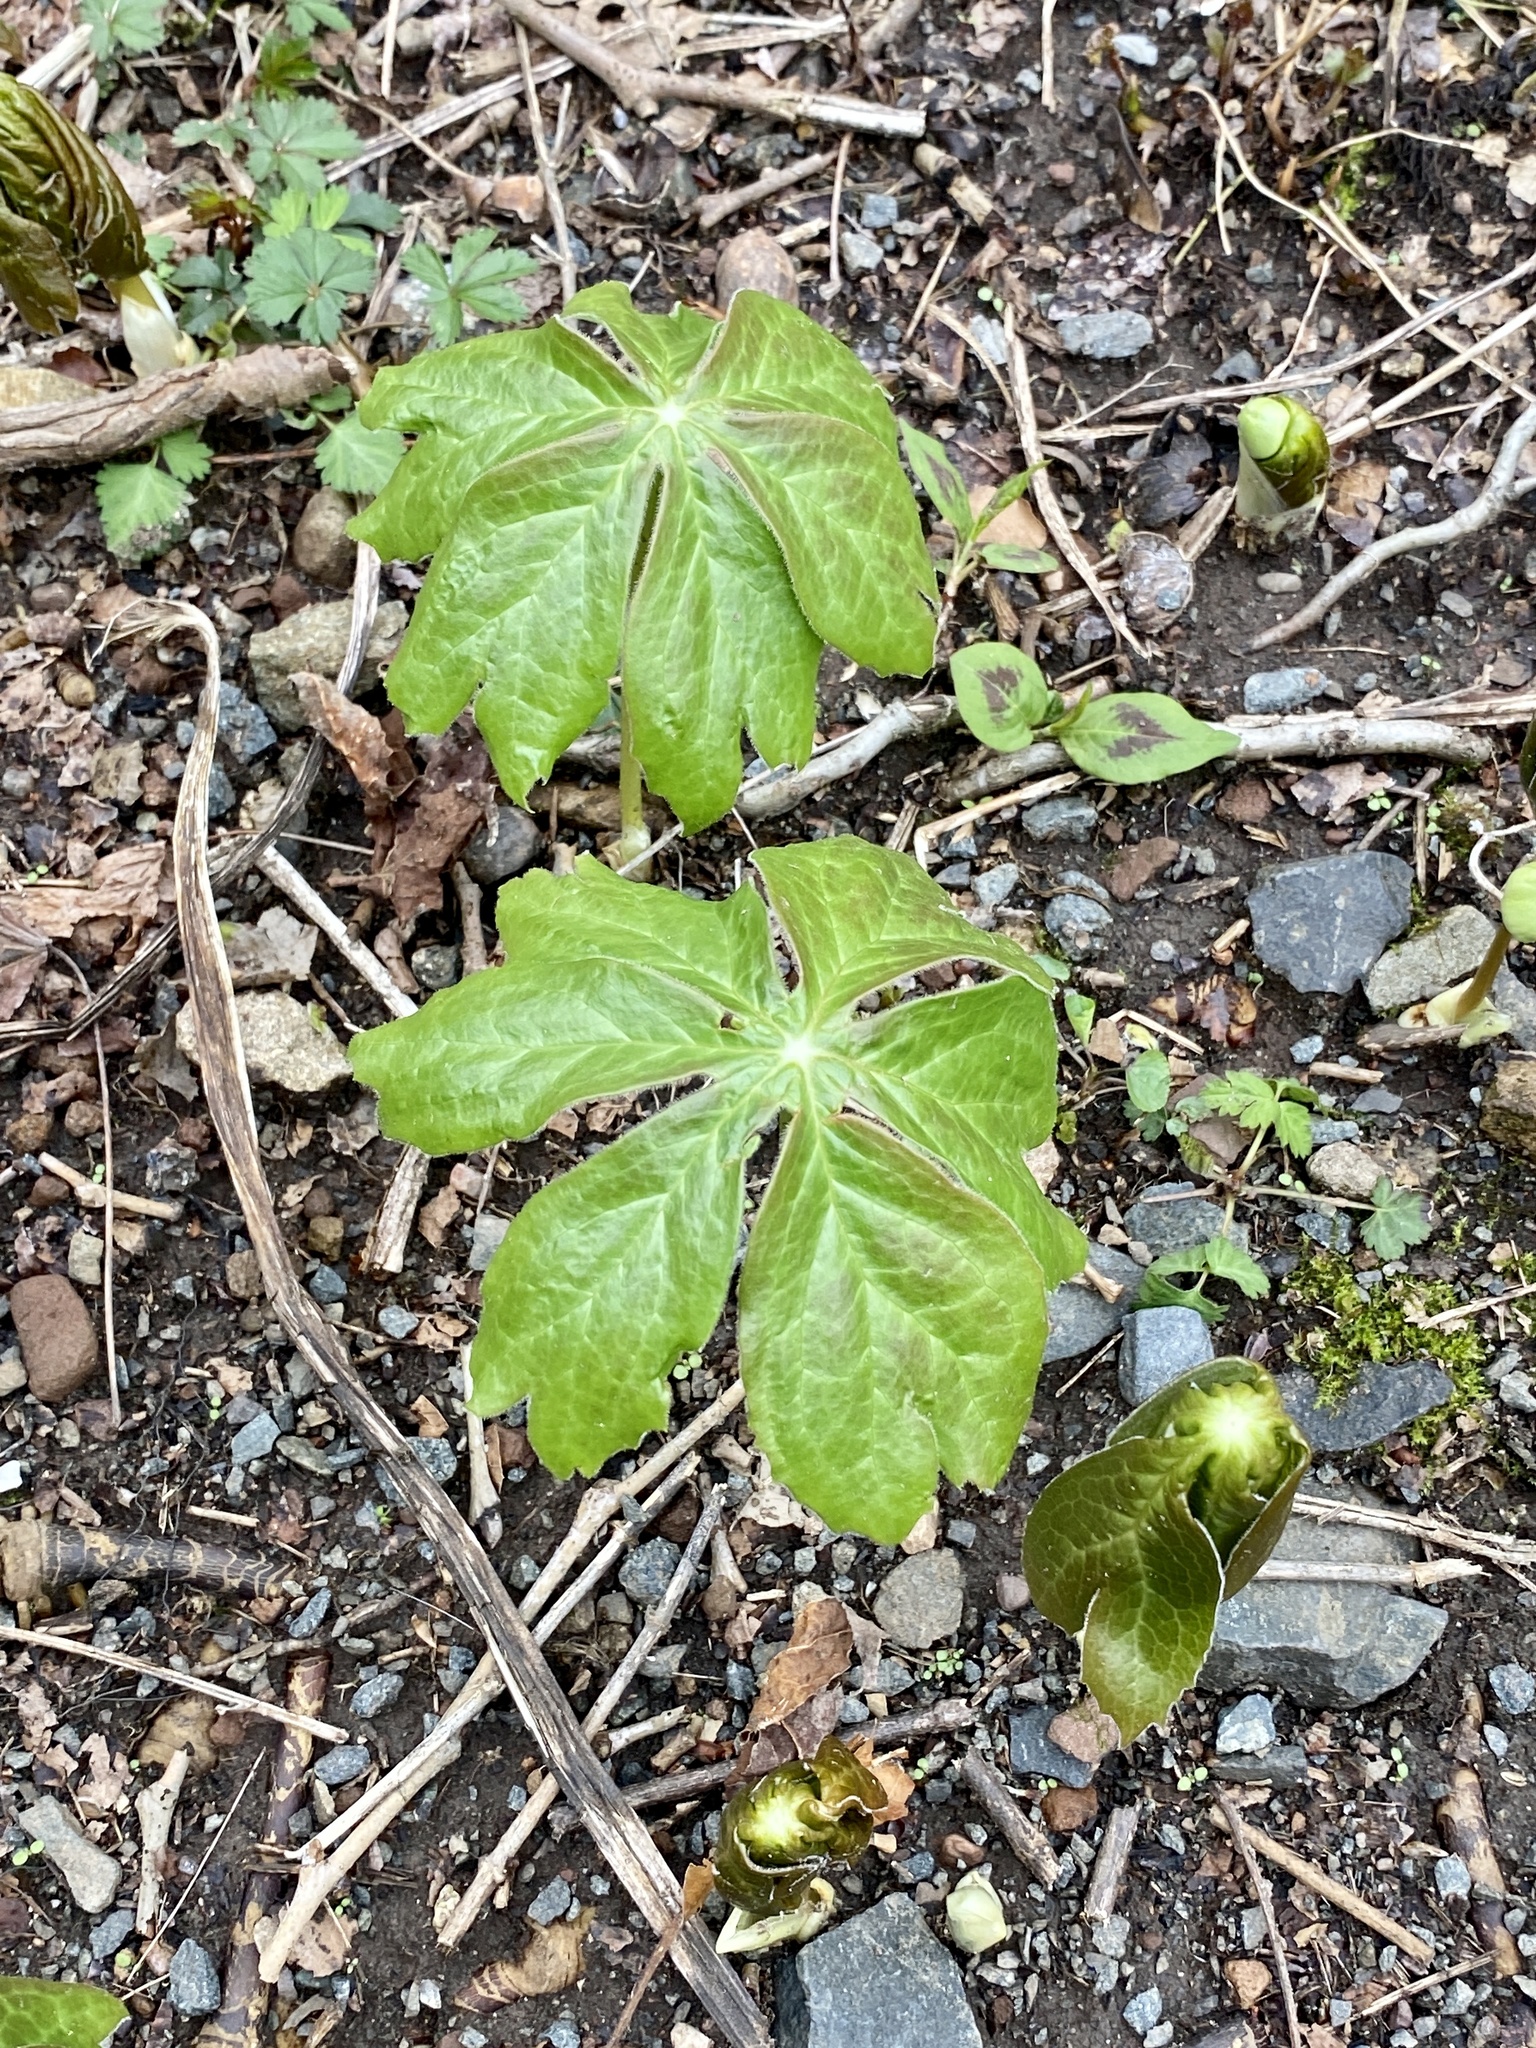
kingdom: Plantae
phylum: Tracheophyta
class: Magnoliopsida
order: Ranunculales
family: Berberidaceae
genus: Podophyllum
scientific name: Podophyllum peltatum
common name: Wild mandrake
